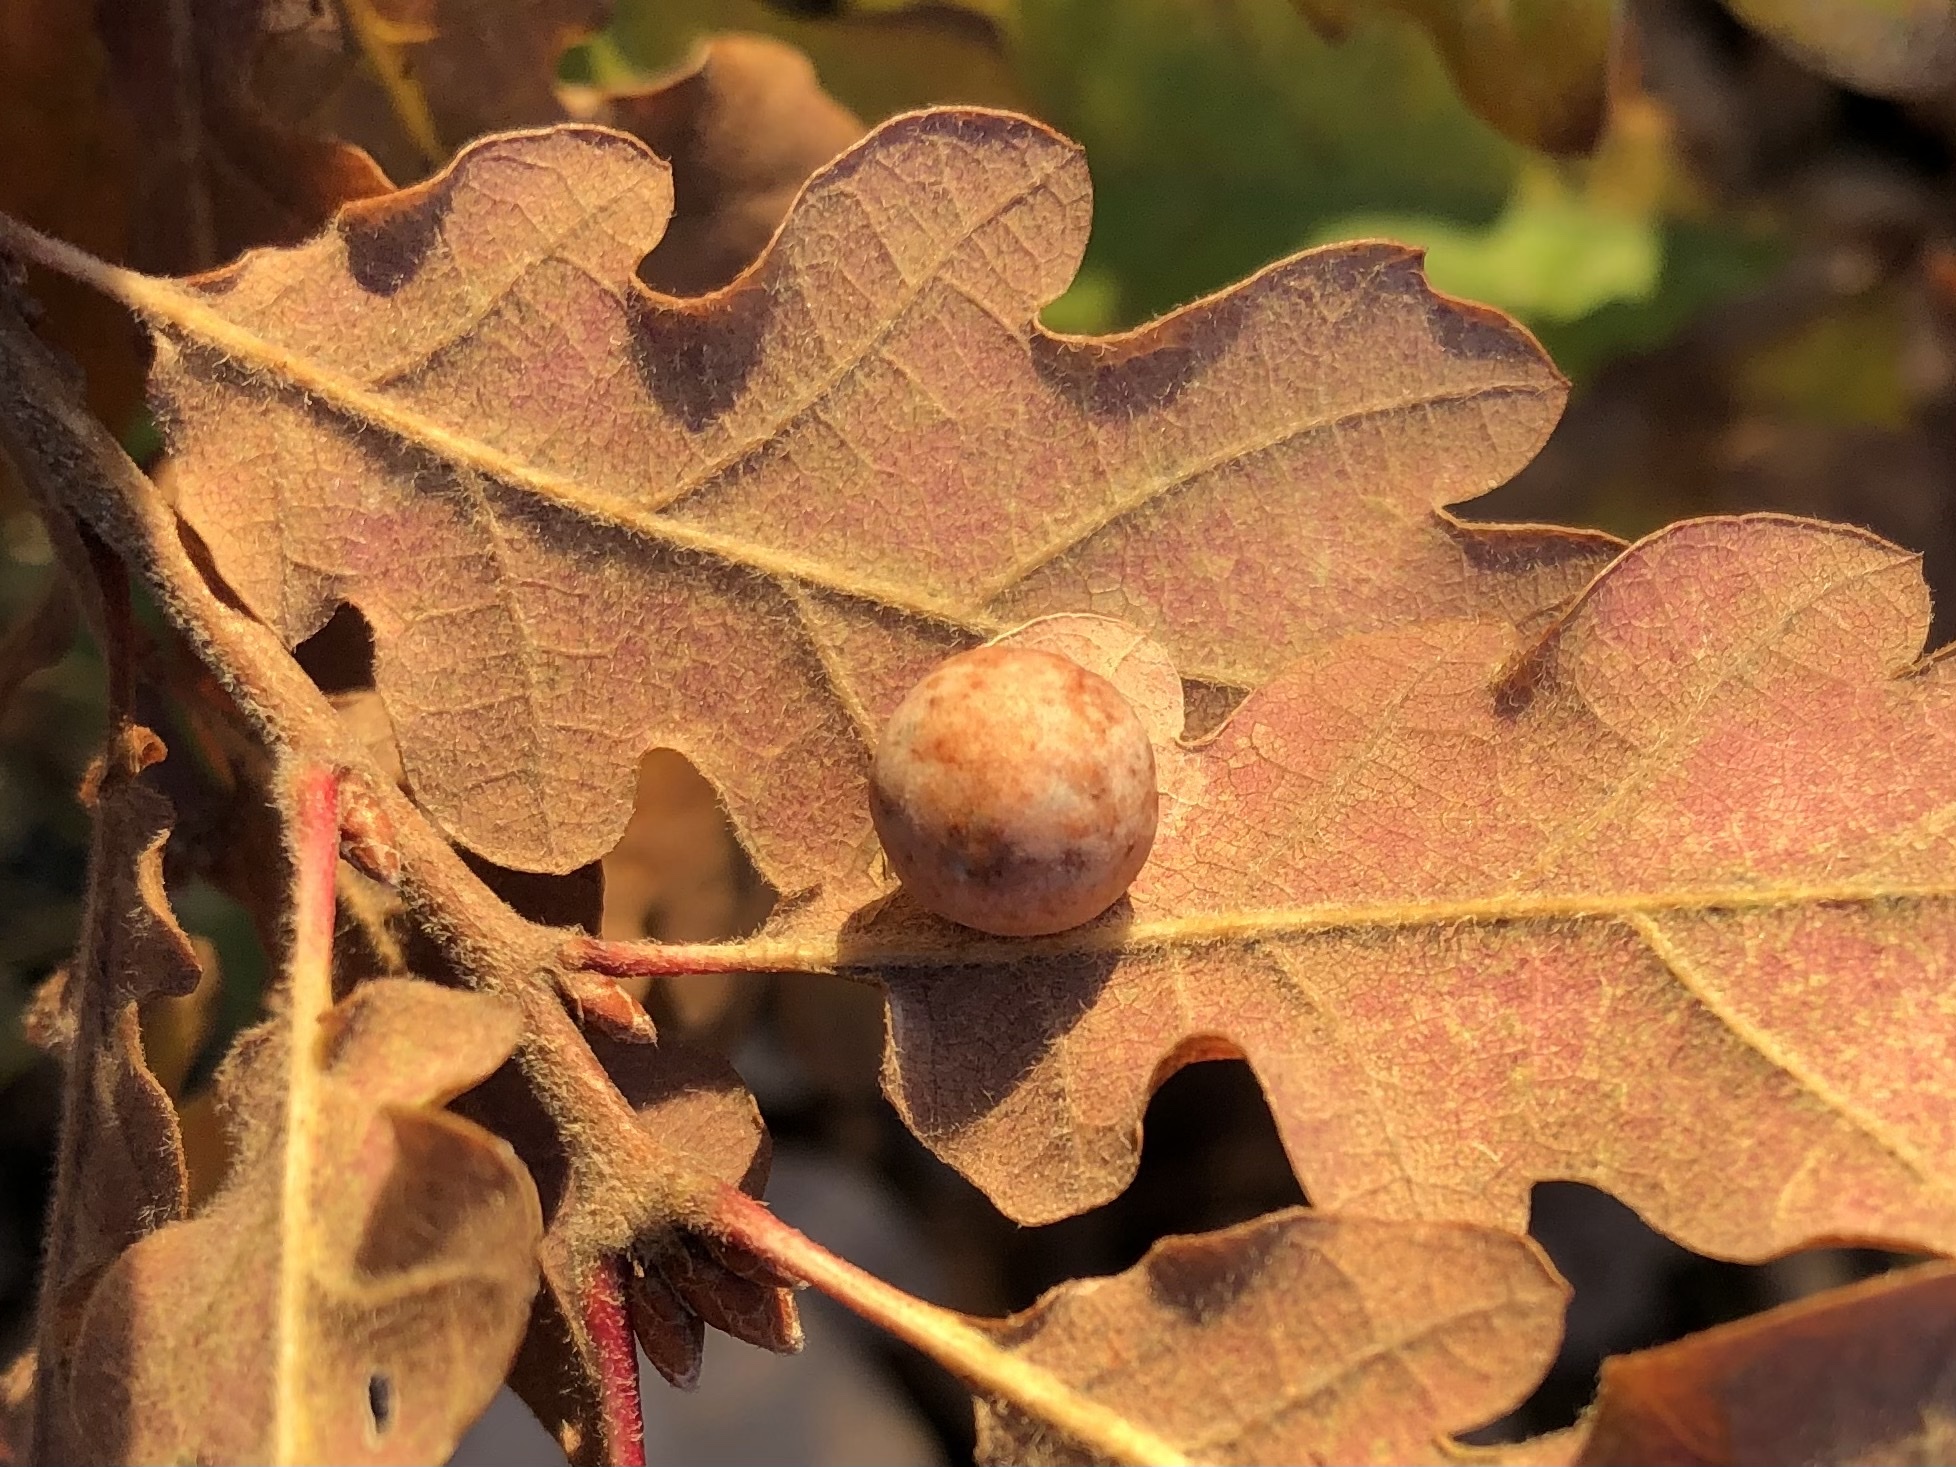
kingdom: Animalia
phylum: Arthropoda
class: Insecta
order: Hymenoptera
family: Cynipidae
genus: Cynips
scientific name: Cynips quercusfolii
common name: Cherry gall
